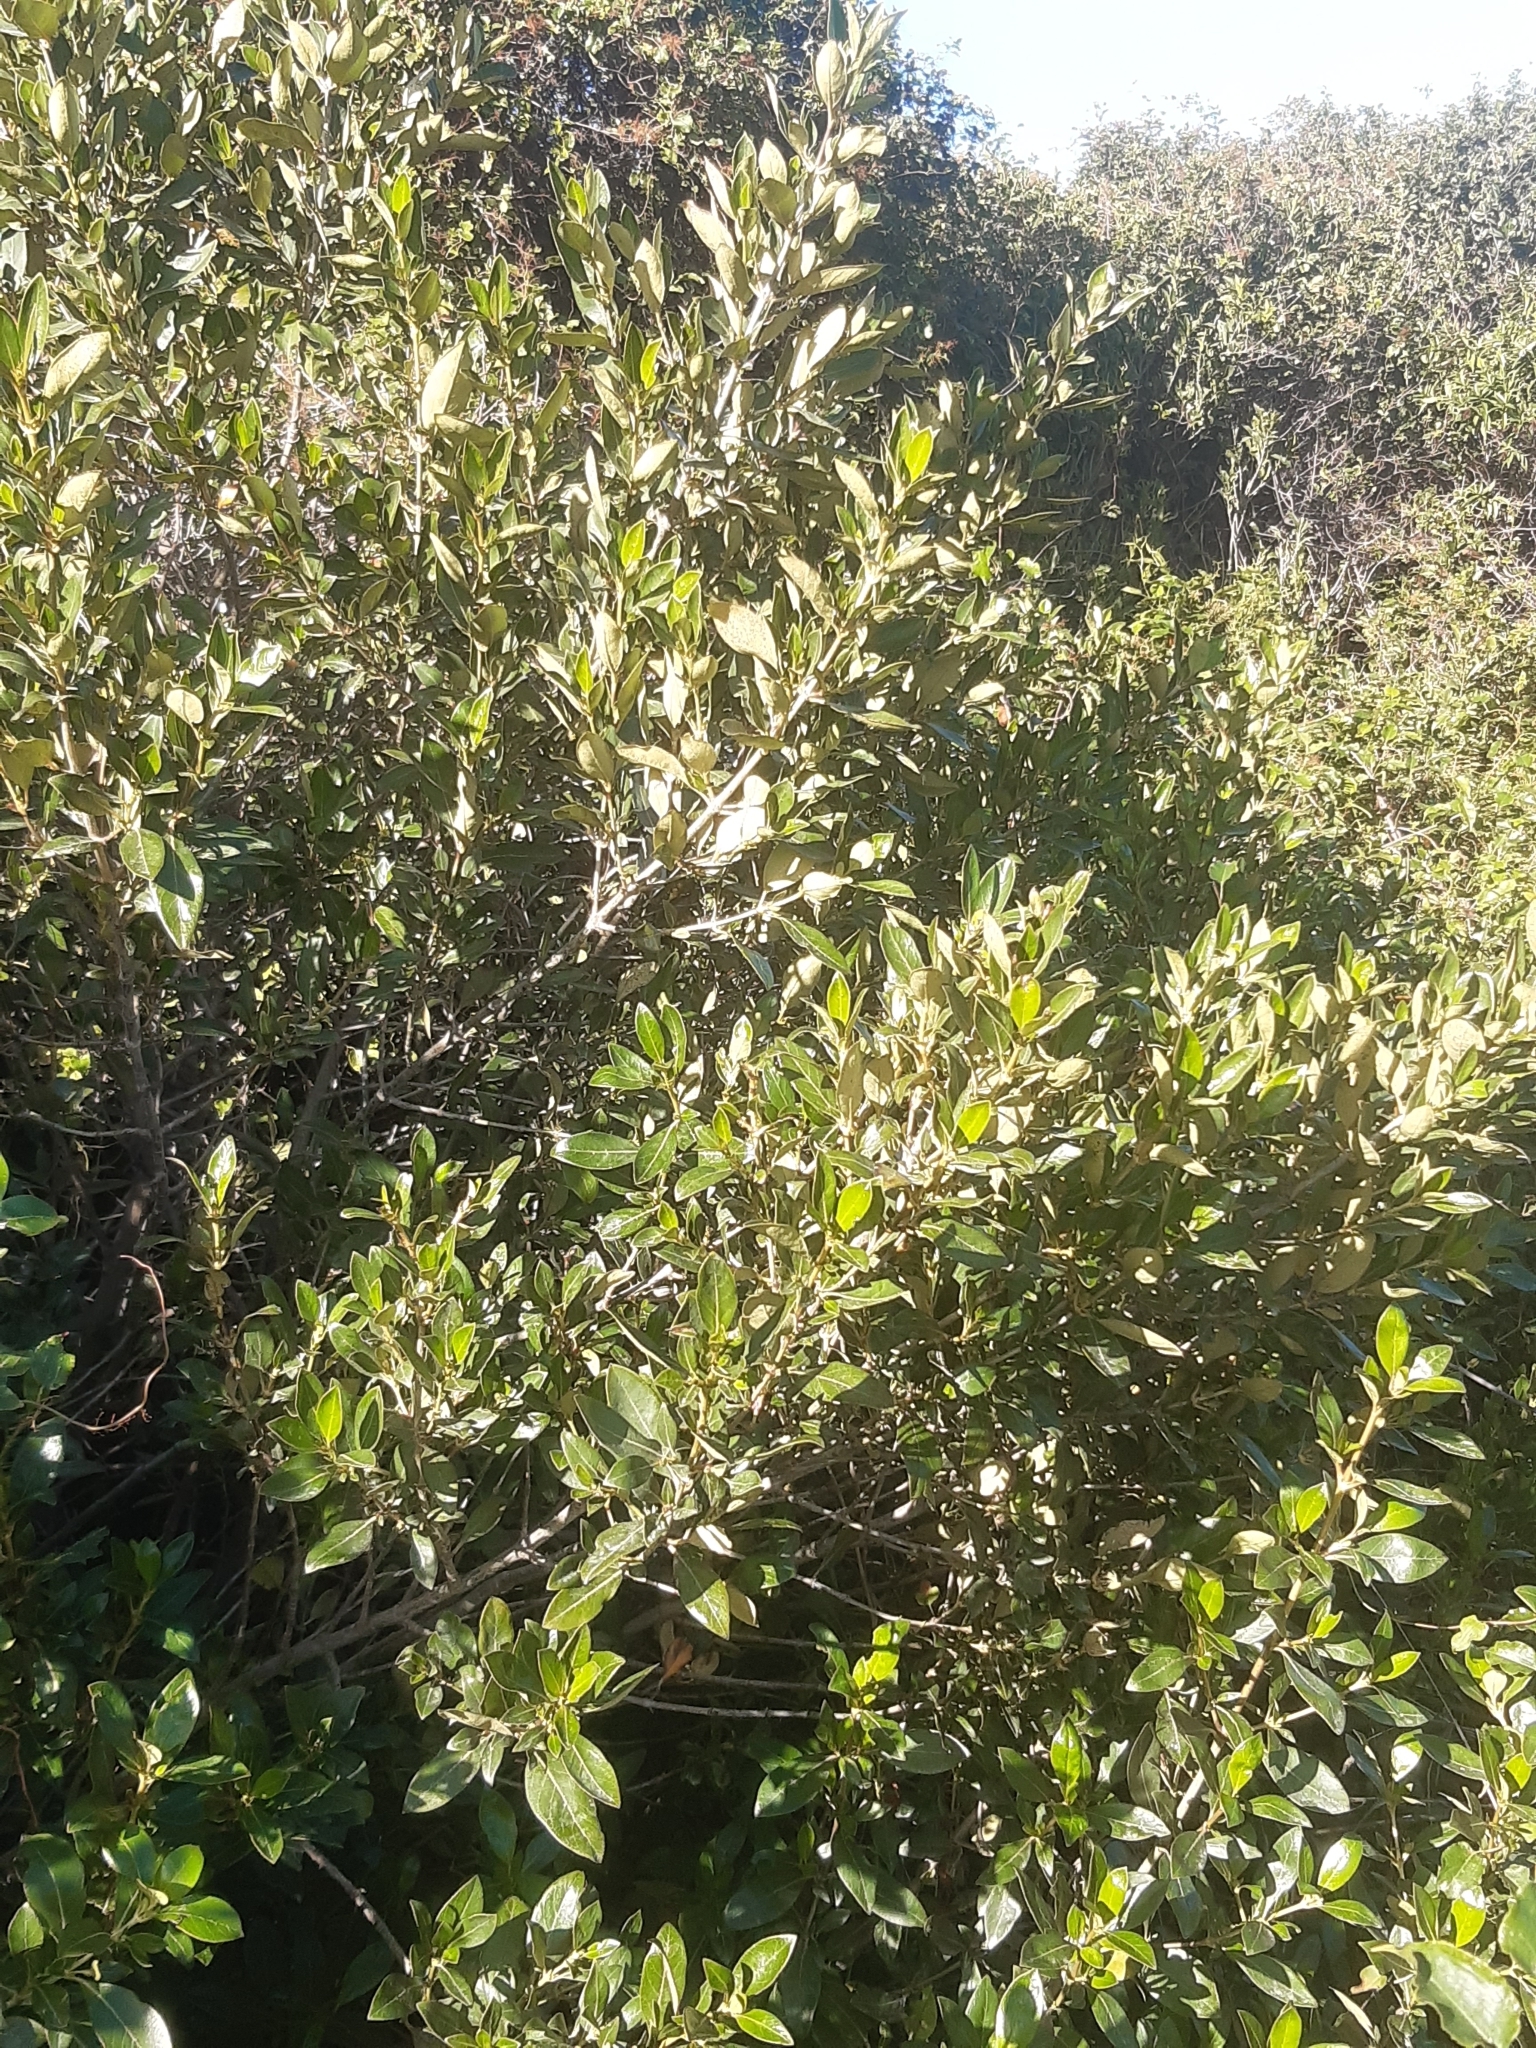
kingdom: Plantae
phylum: Tracheophyta
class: Magnoliopsida
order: Gentianales
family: Rubiaceae
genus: Coprosma
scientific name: Coprosma robusta
